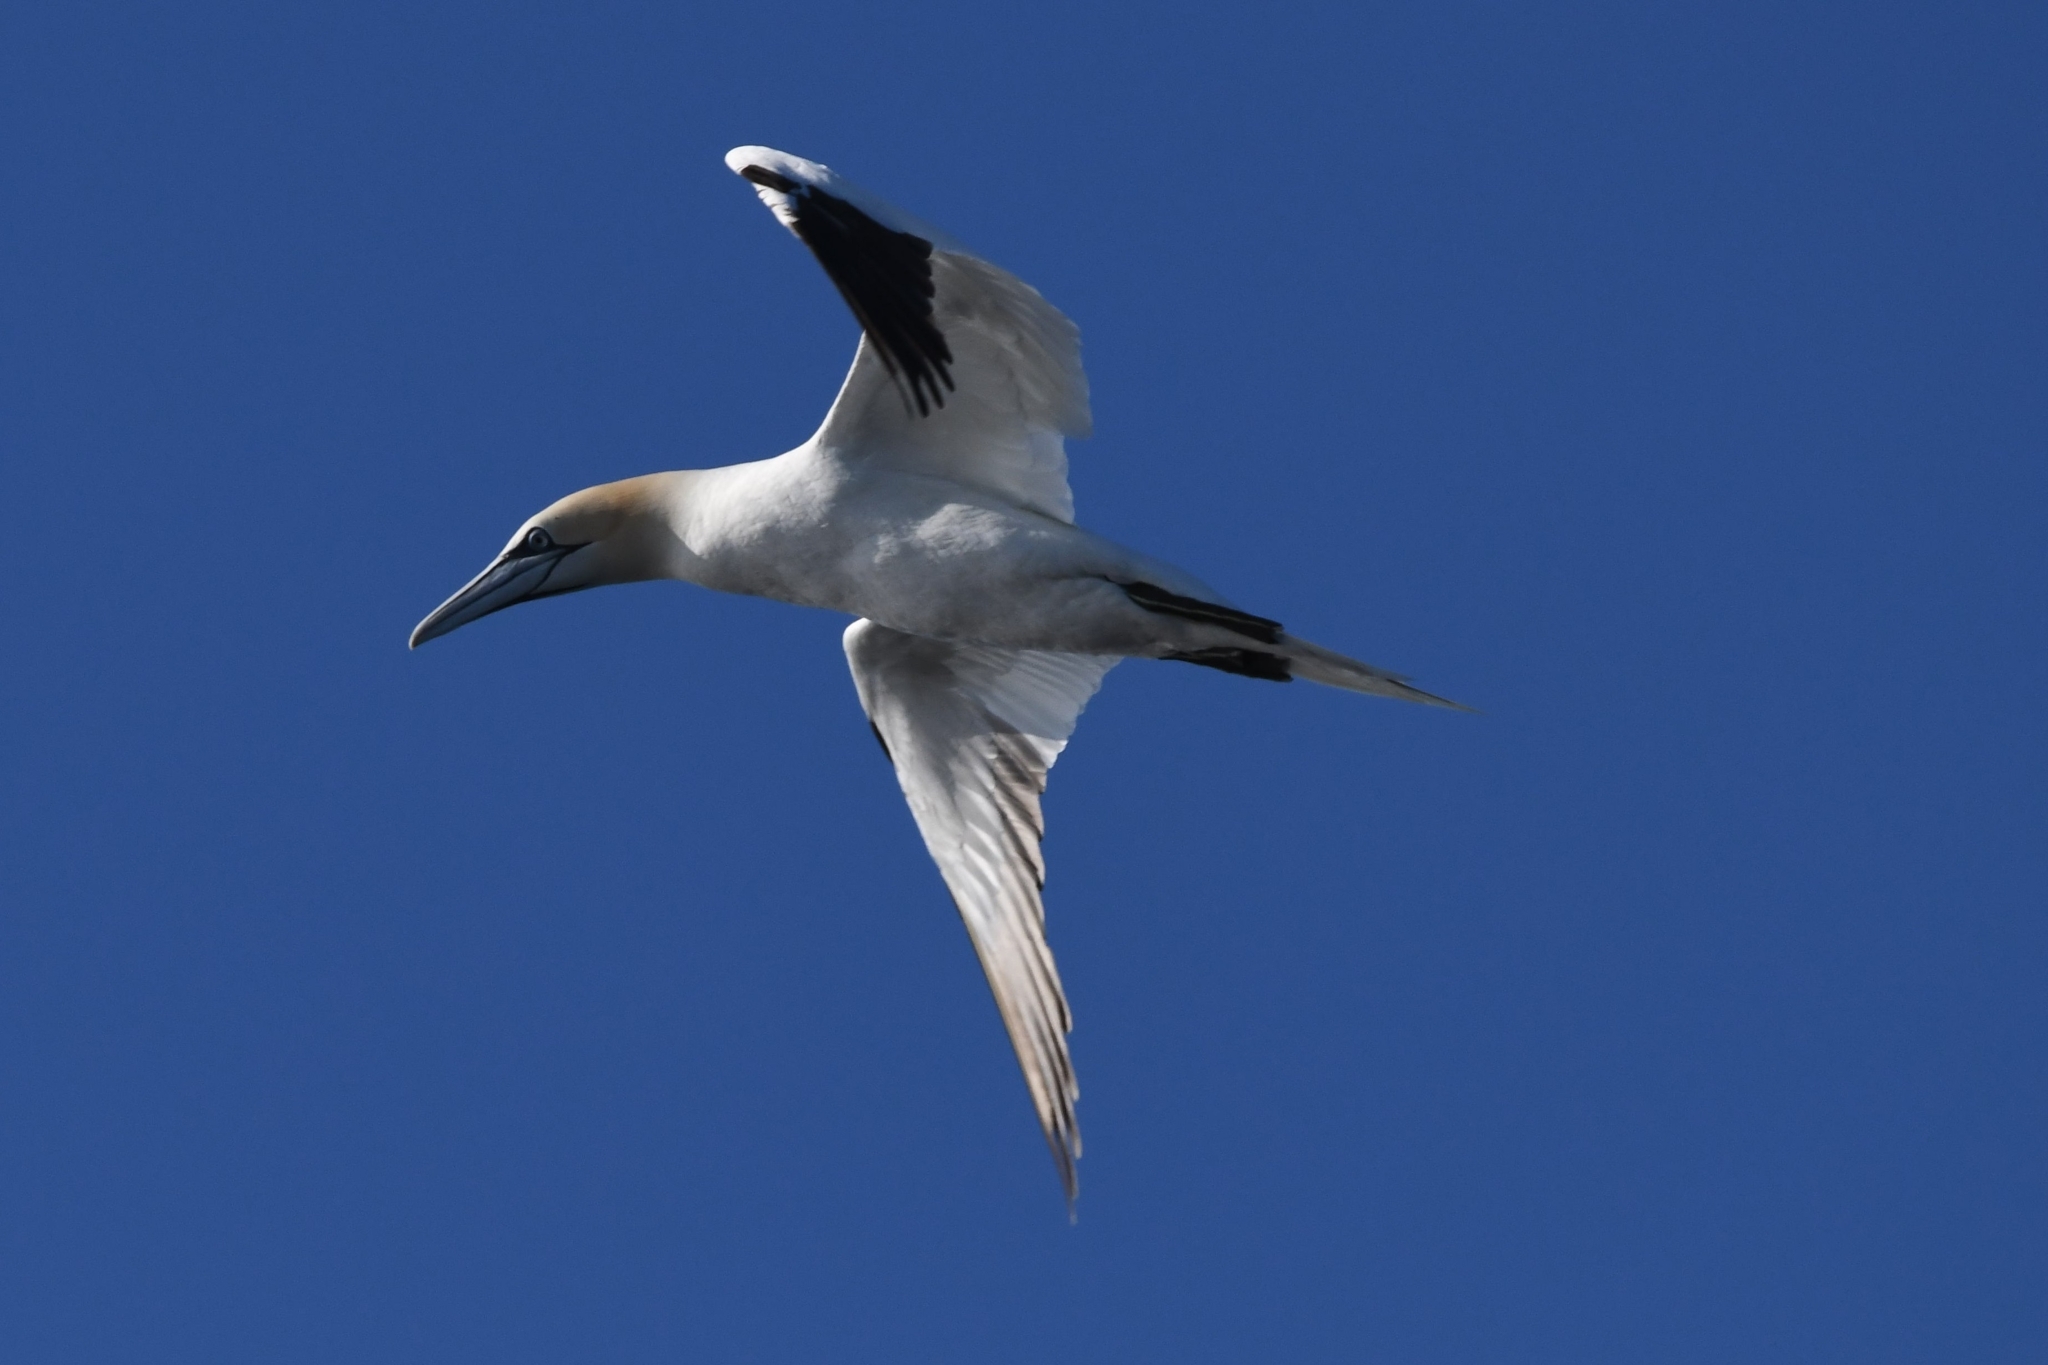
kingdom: Animalia
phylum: Chordata
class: Aves
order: Suliformes
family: Sulidae
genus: Morus
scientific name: Morus bassanus
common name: Northern gannet
